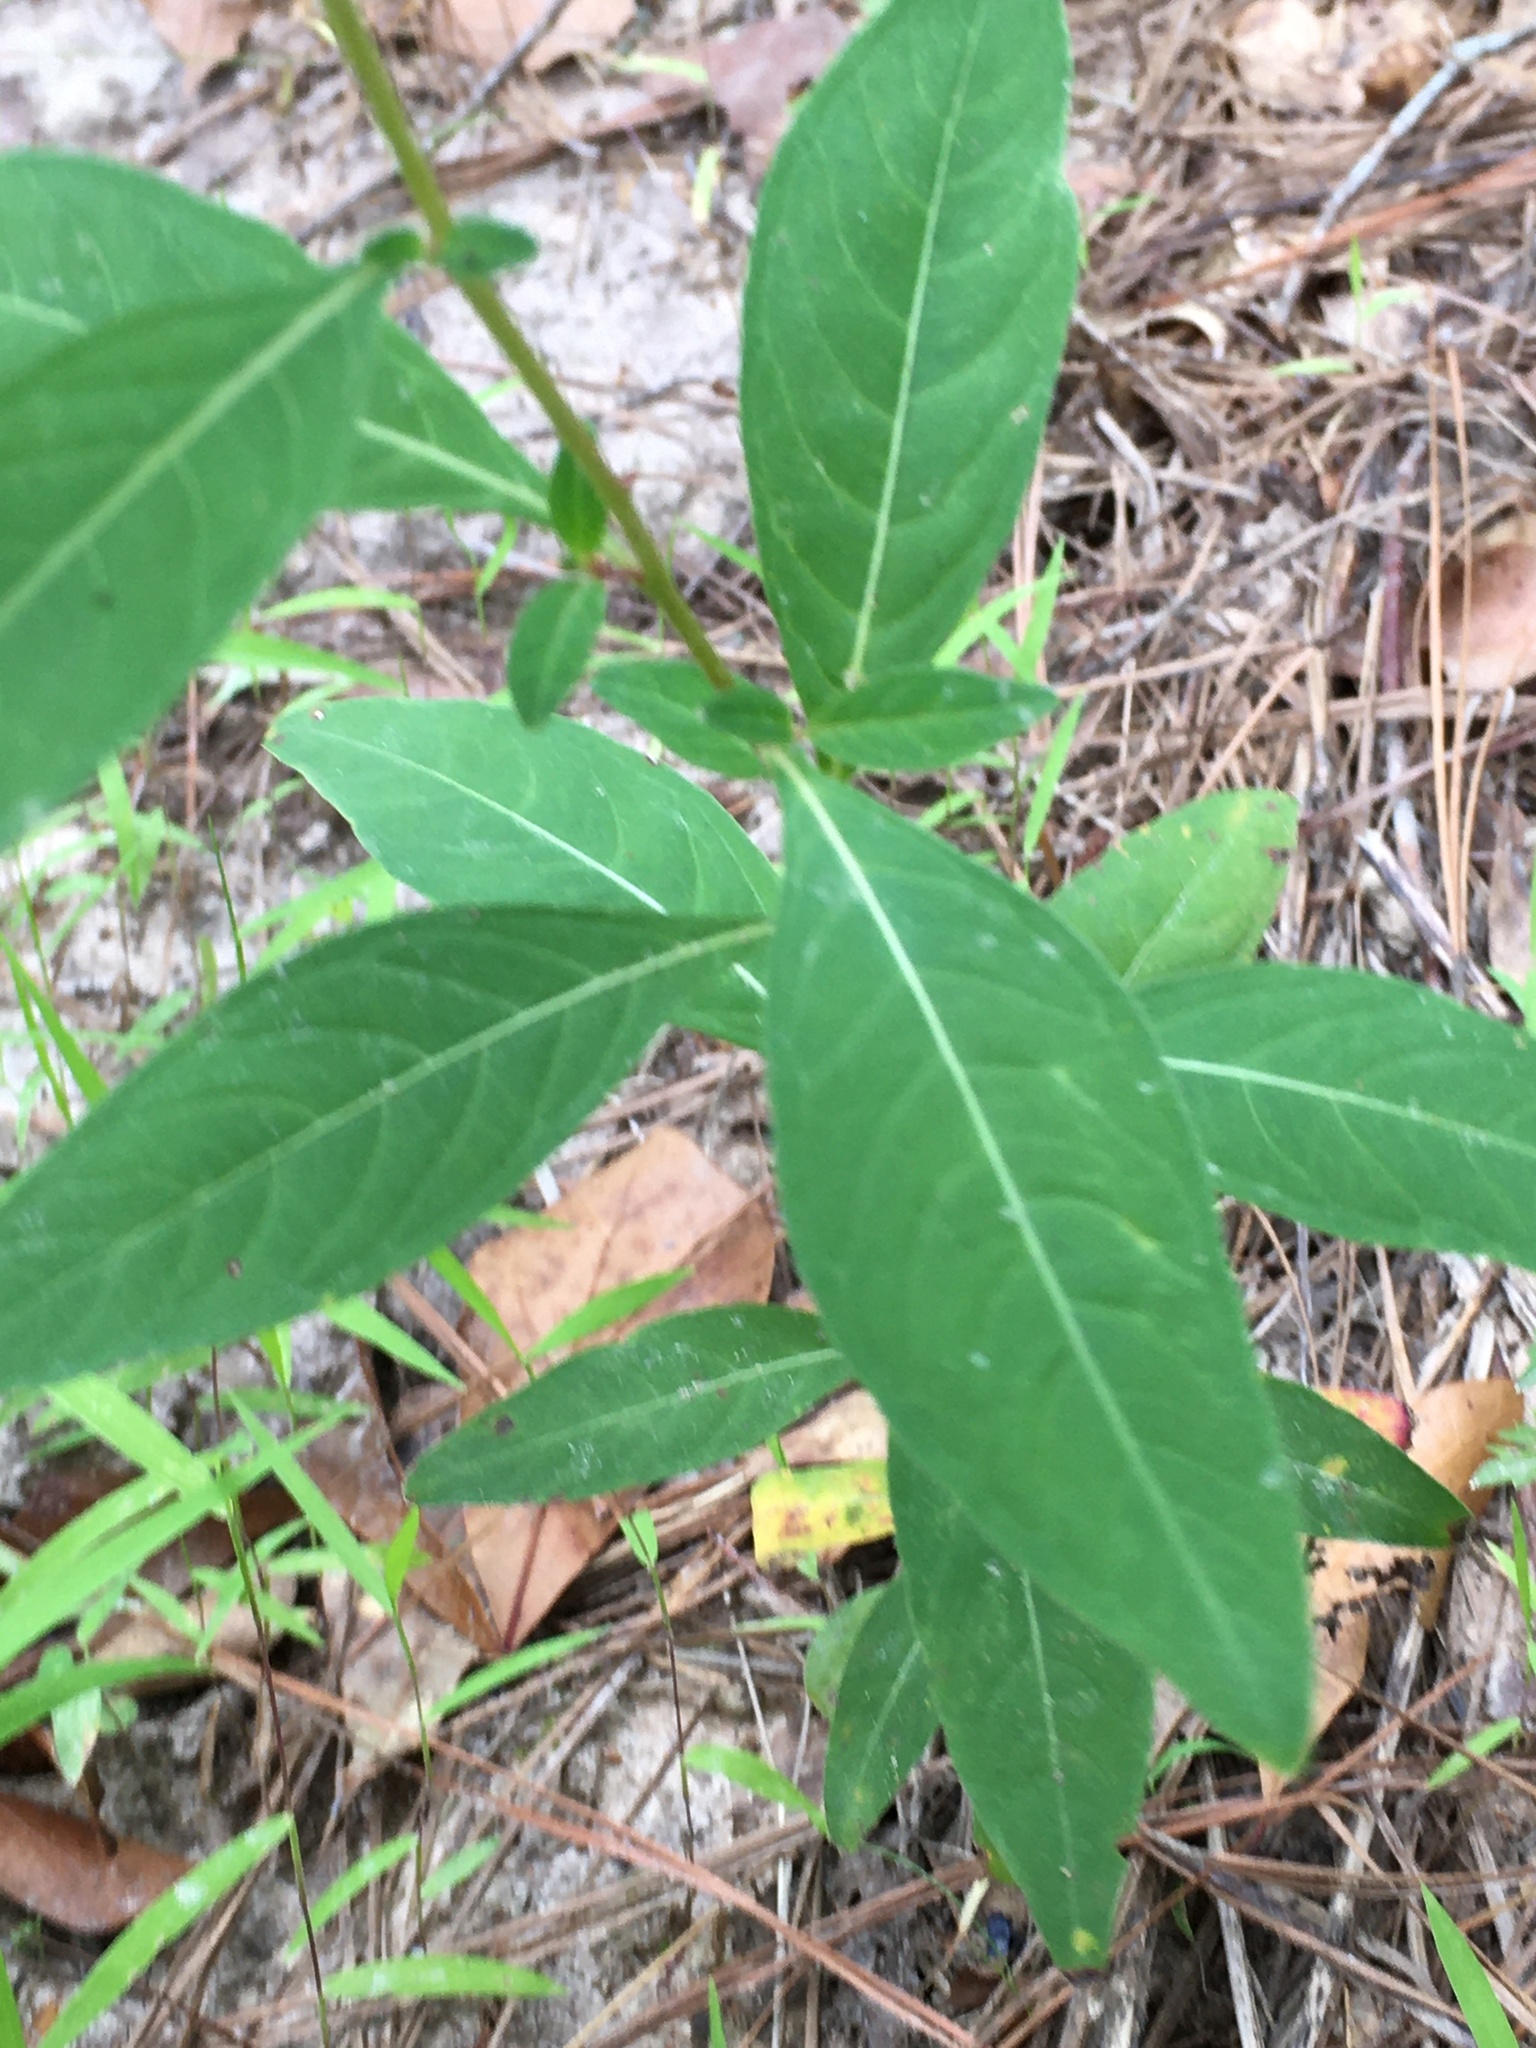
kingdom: Plantae
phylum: Tracheophyta
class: Magnoliopsida
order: Myrtales
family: Onagraceae
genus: Ludwigia
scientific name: Ludwigia alternifolia
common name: Rattlebox
